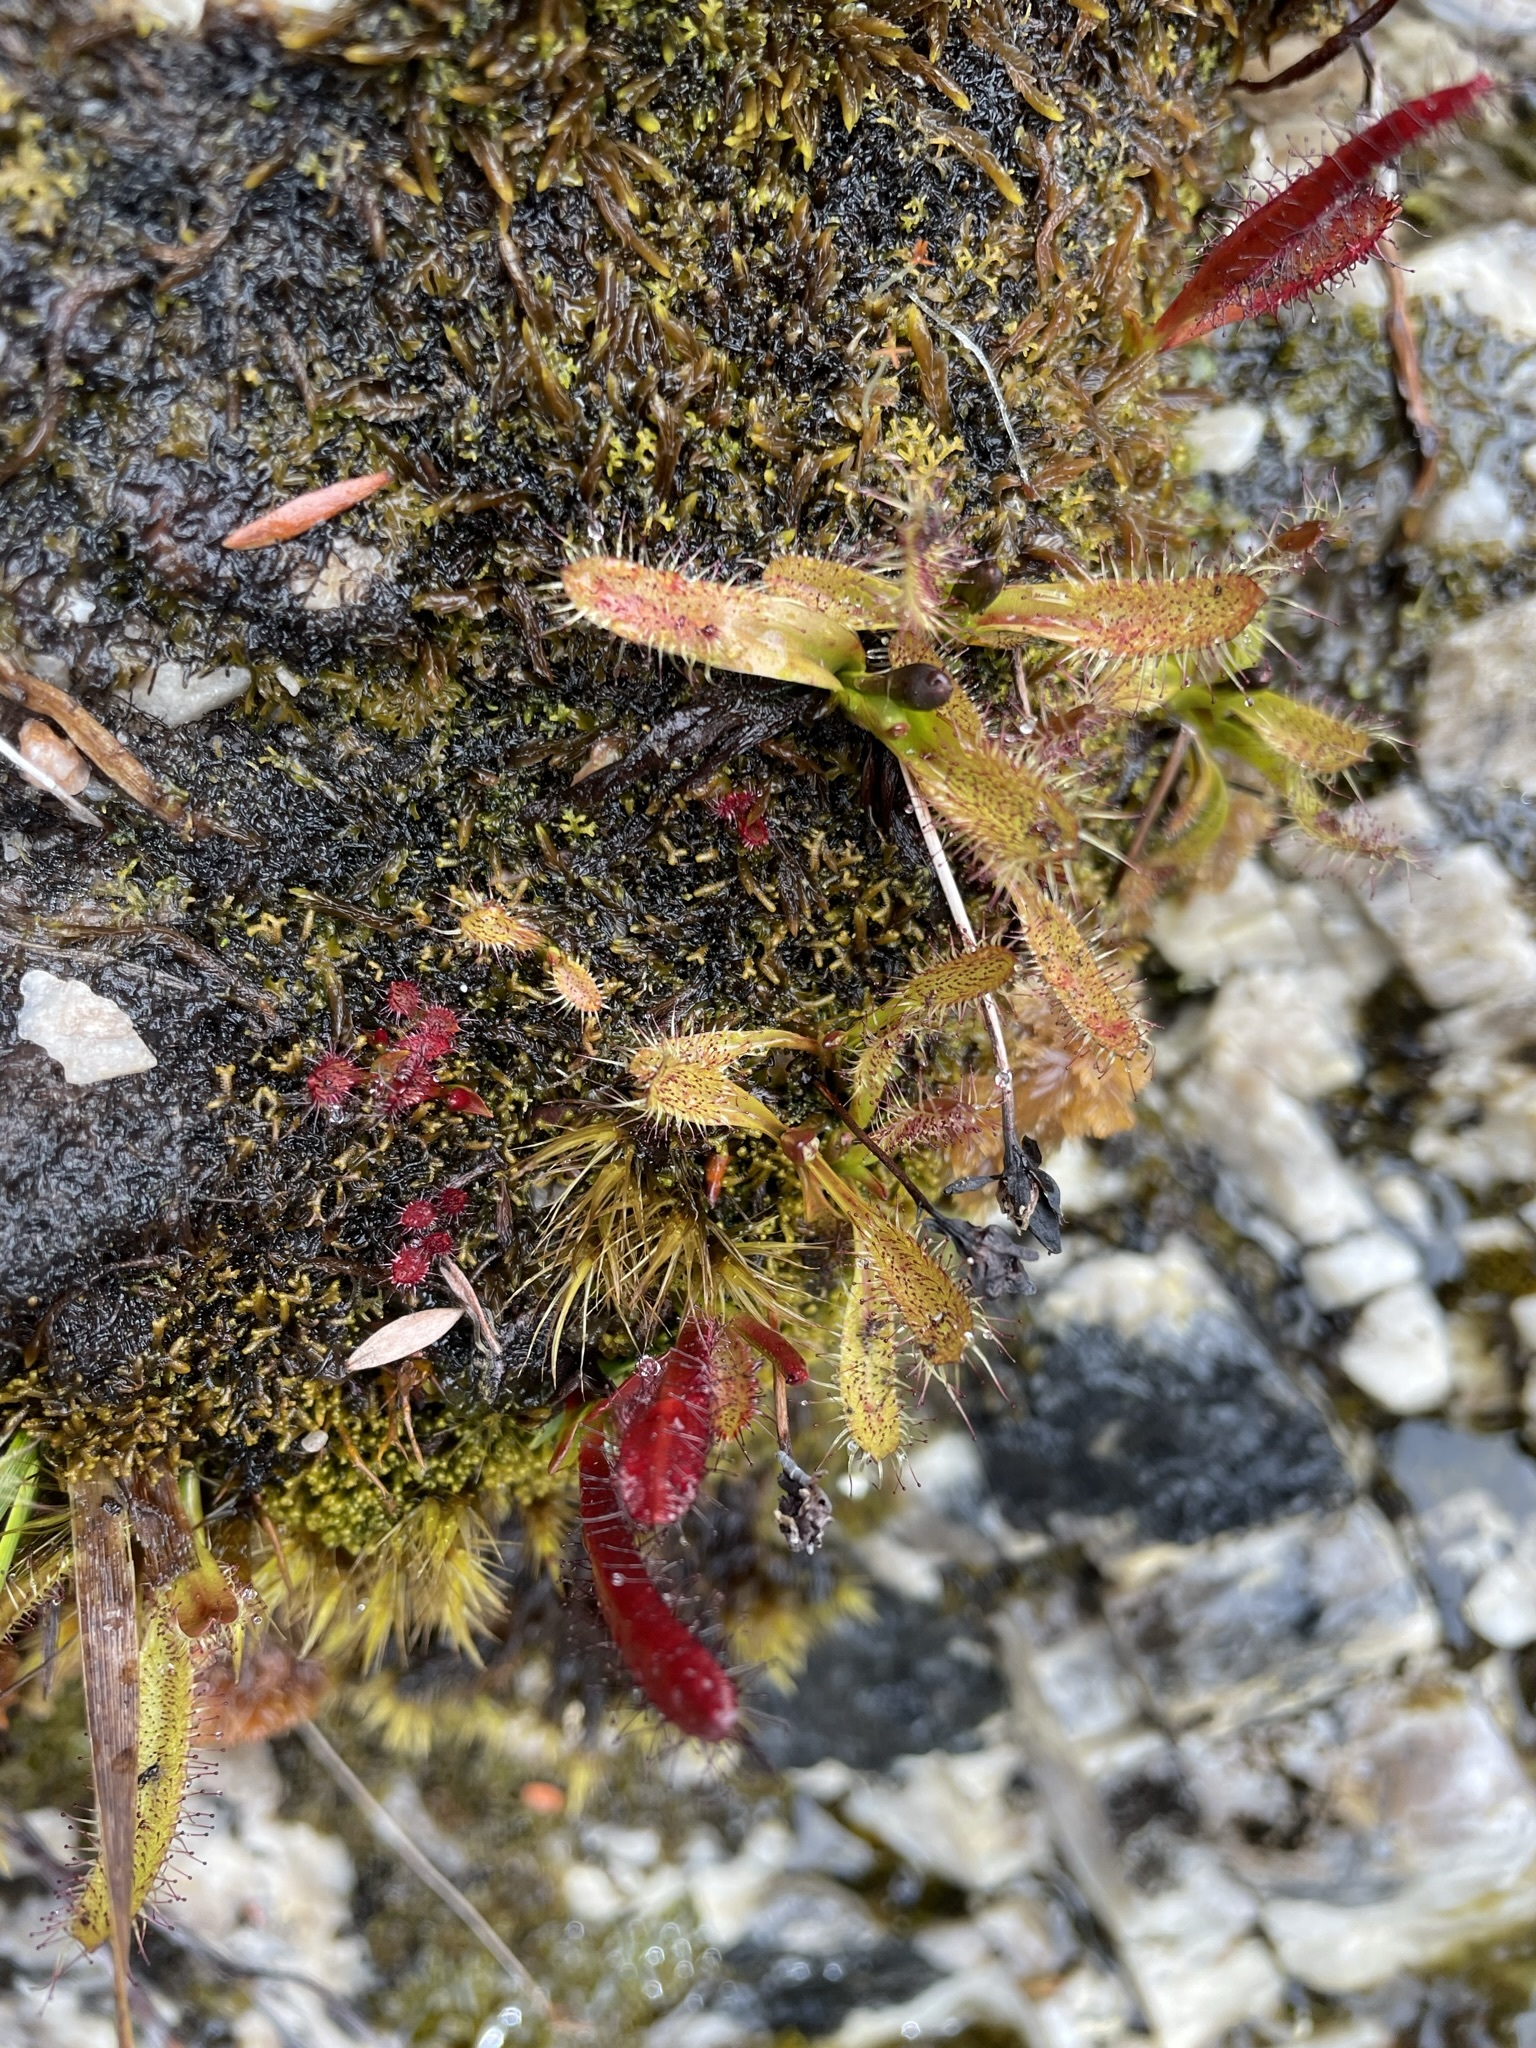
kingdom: Plantae
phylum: Tracheophyta
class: Magnoliopsida
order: Caryophyllales
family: Droseraceae
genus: Drosera
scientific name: Drosera murfetii
